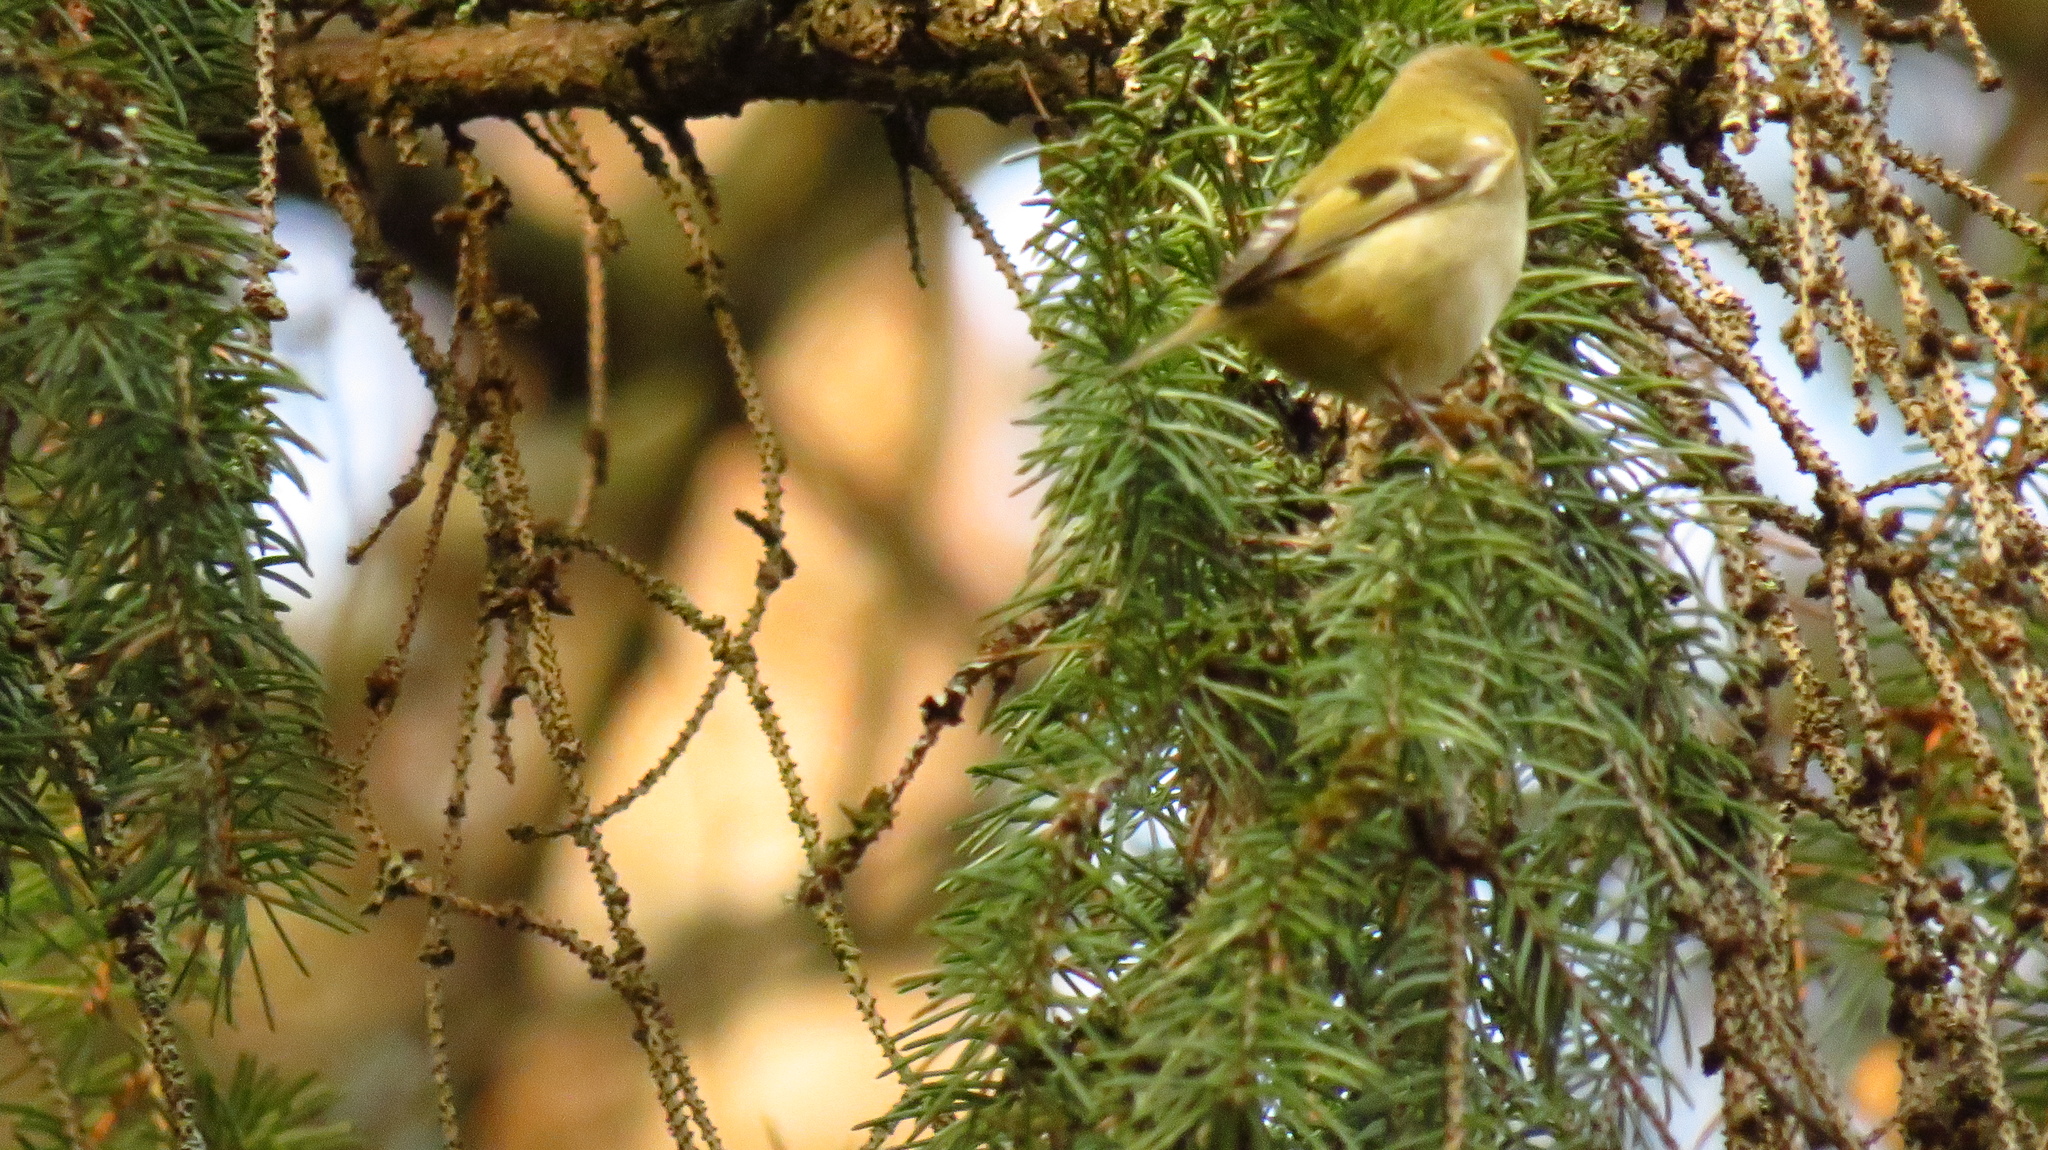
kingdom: Animalia
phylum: Chordata
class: Aves
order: Passeriformes
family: Regulidae
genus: Regulus
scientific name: Regulus regulus
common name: Goldcrest
